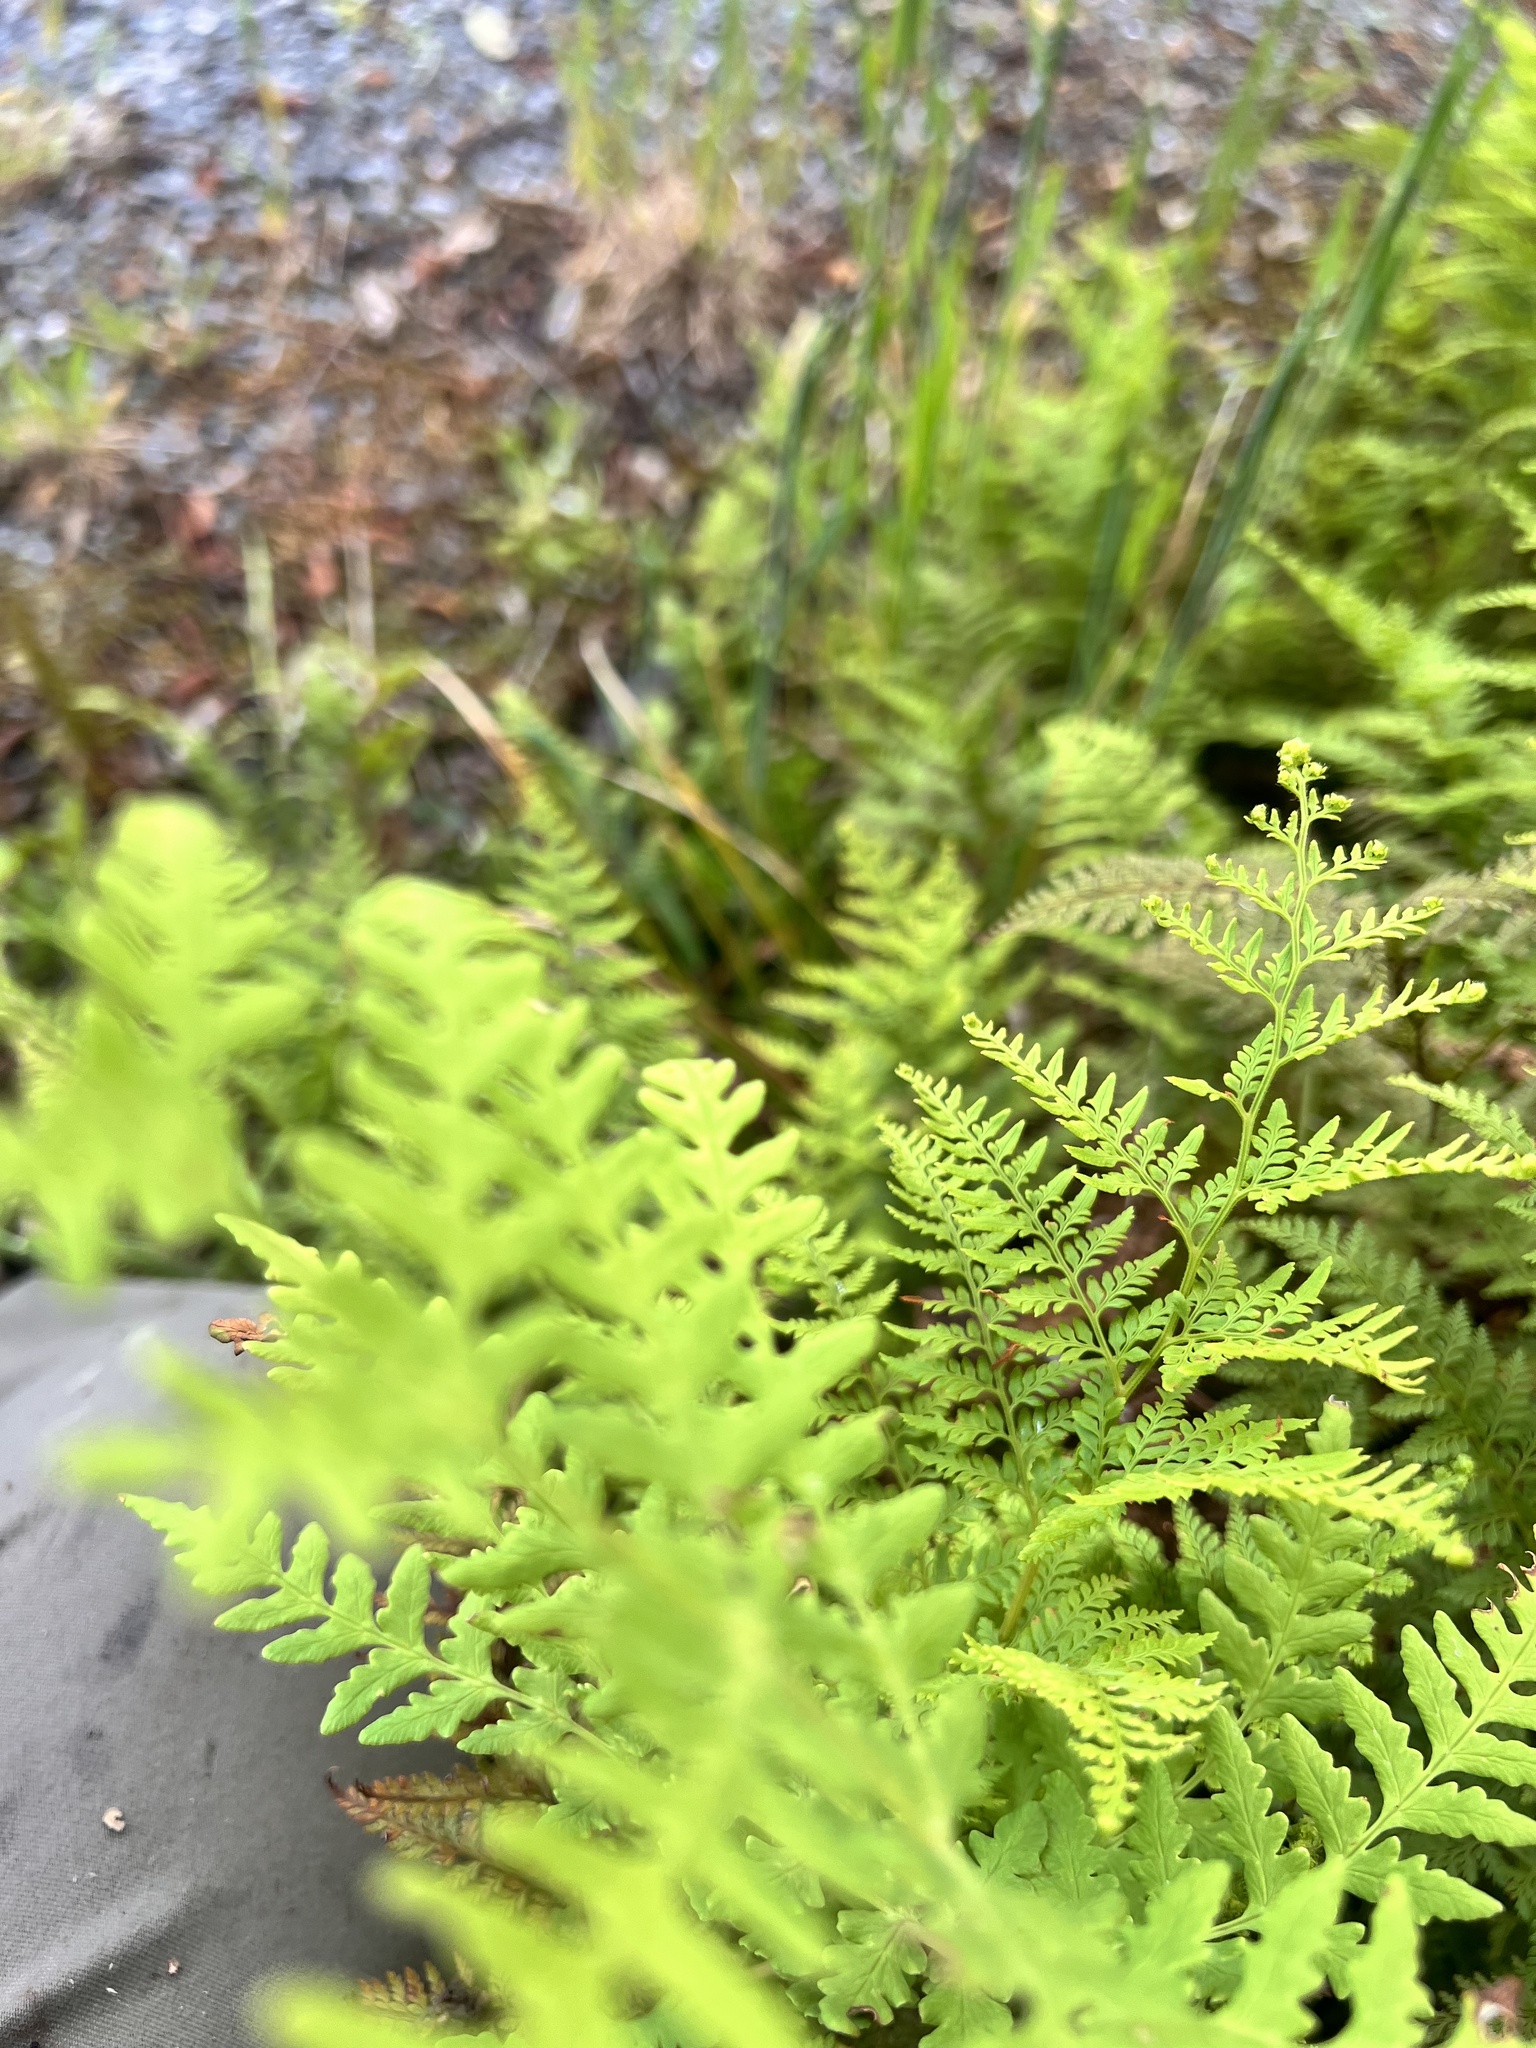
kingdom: Plantae
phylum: Tracheophyta
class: Polypodiopsida
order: Polypodiales
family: Dennstaedtiaceae
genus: Paesia
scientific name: Paesia scaberula
